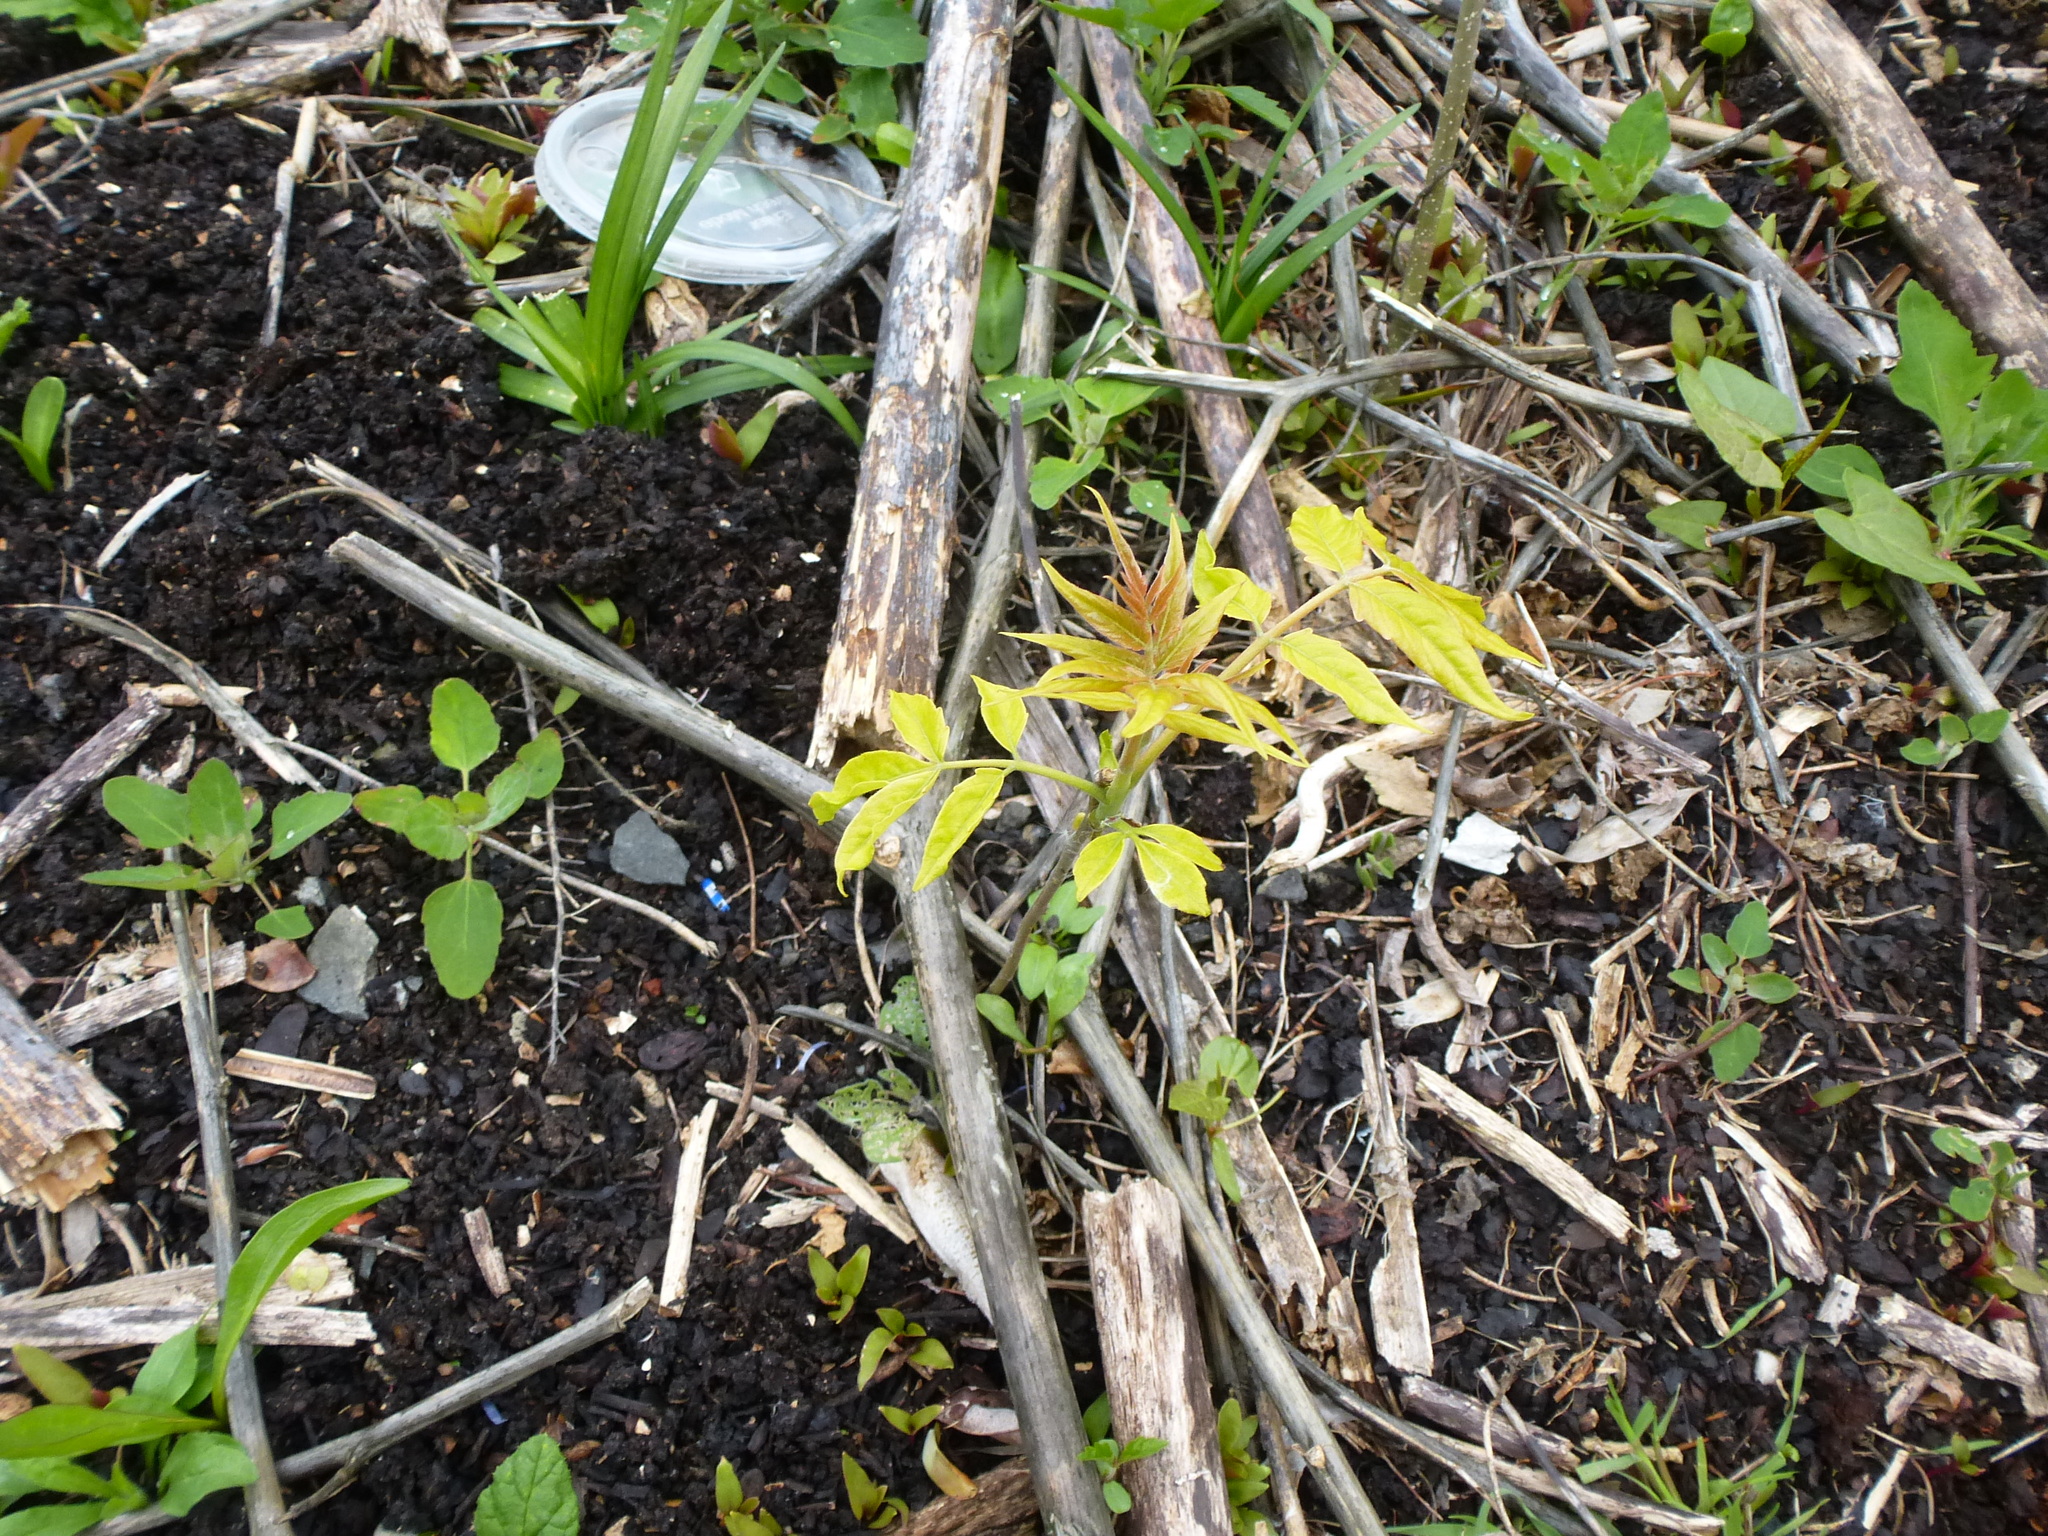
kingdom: Plantae
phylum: Tracheophyta
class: Magnoliopsida
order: Sapindales
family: Simaroubaceae
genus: Ailanthus
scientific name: Ailanthus altissima
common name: Tree-of-heaven
